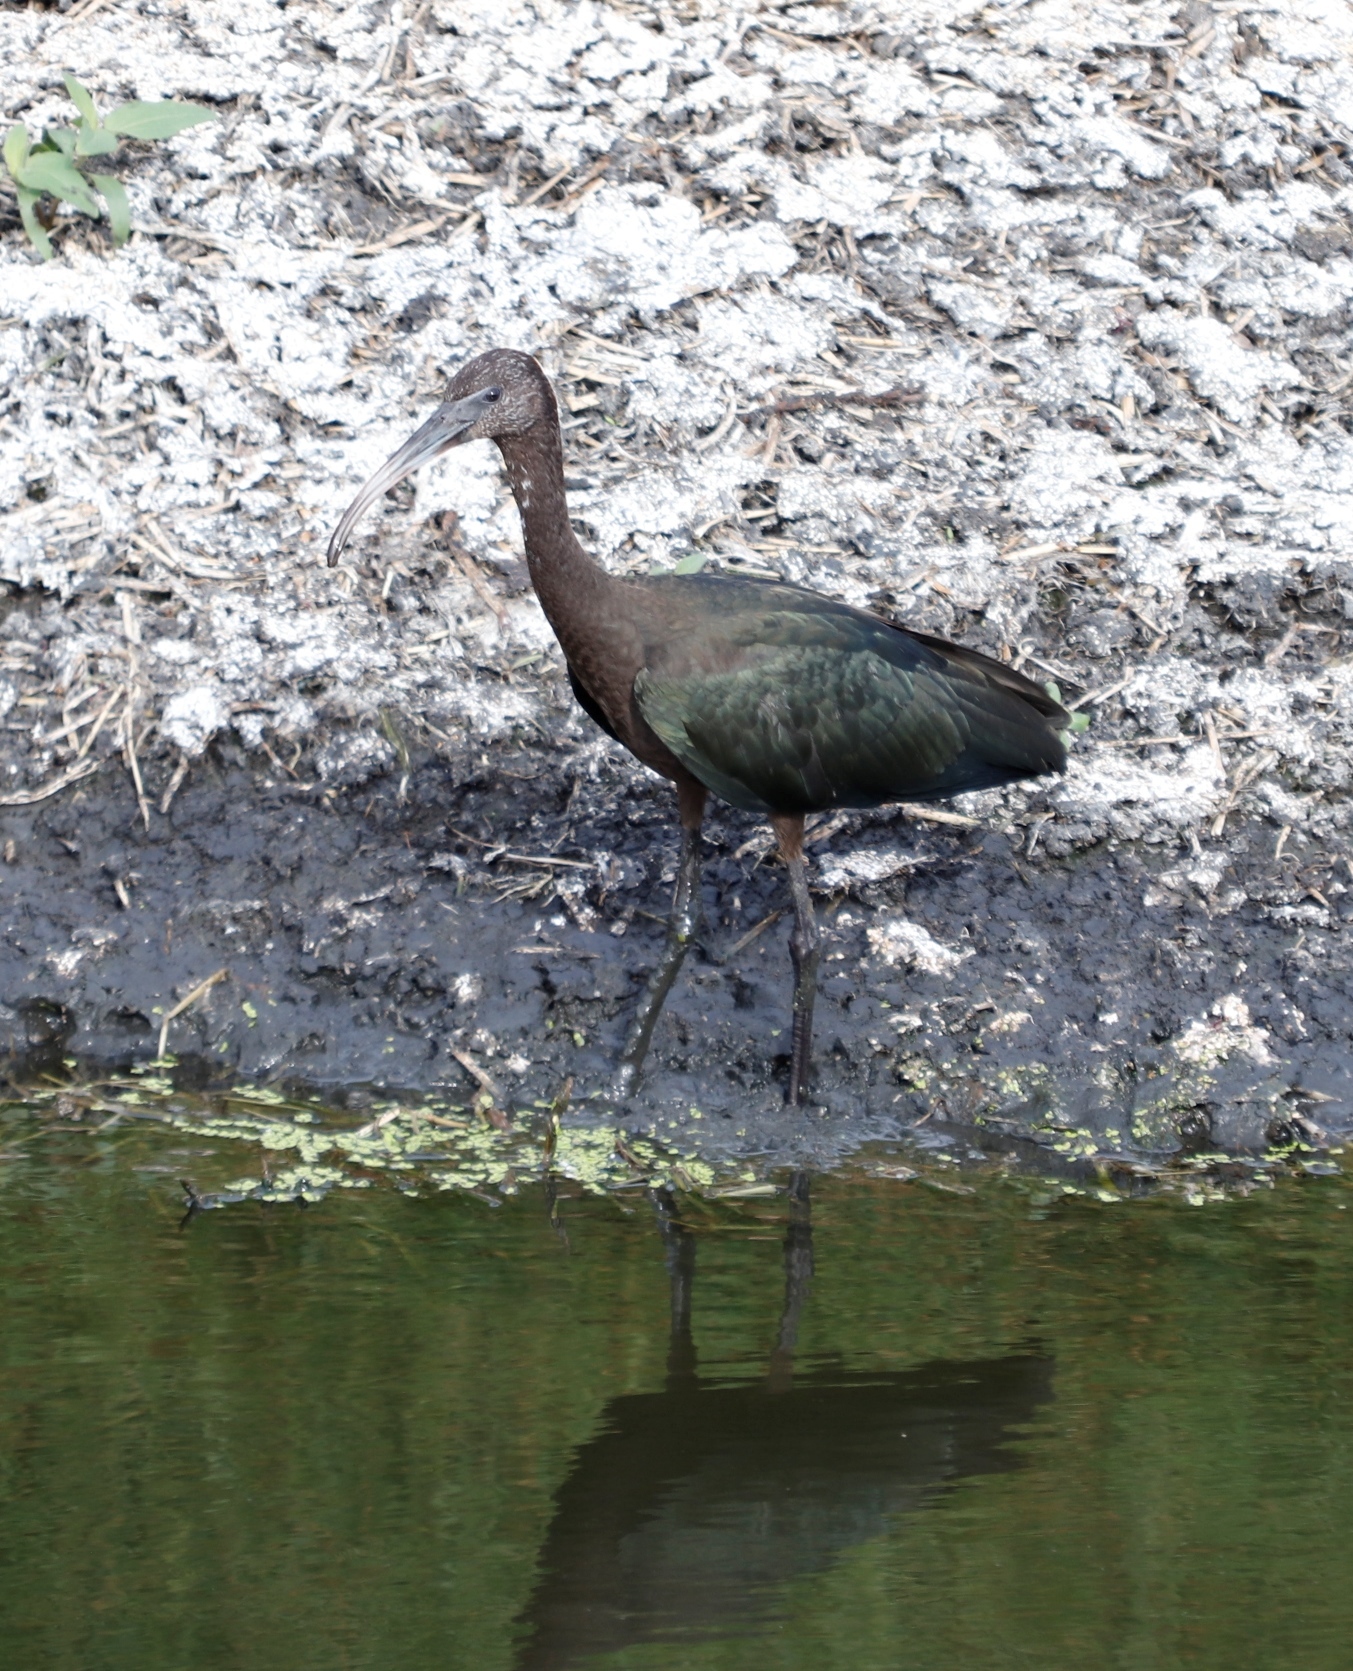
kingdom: Animalia
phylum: Chordata
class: Aves
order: Pelecaniformes
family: Threskiornithidae
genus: Plegadis
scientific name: Plegadis falcinellus
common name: Glossy ibis
